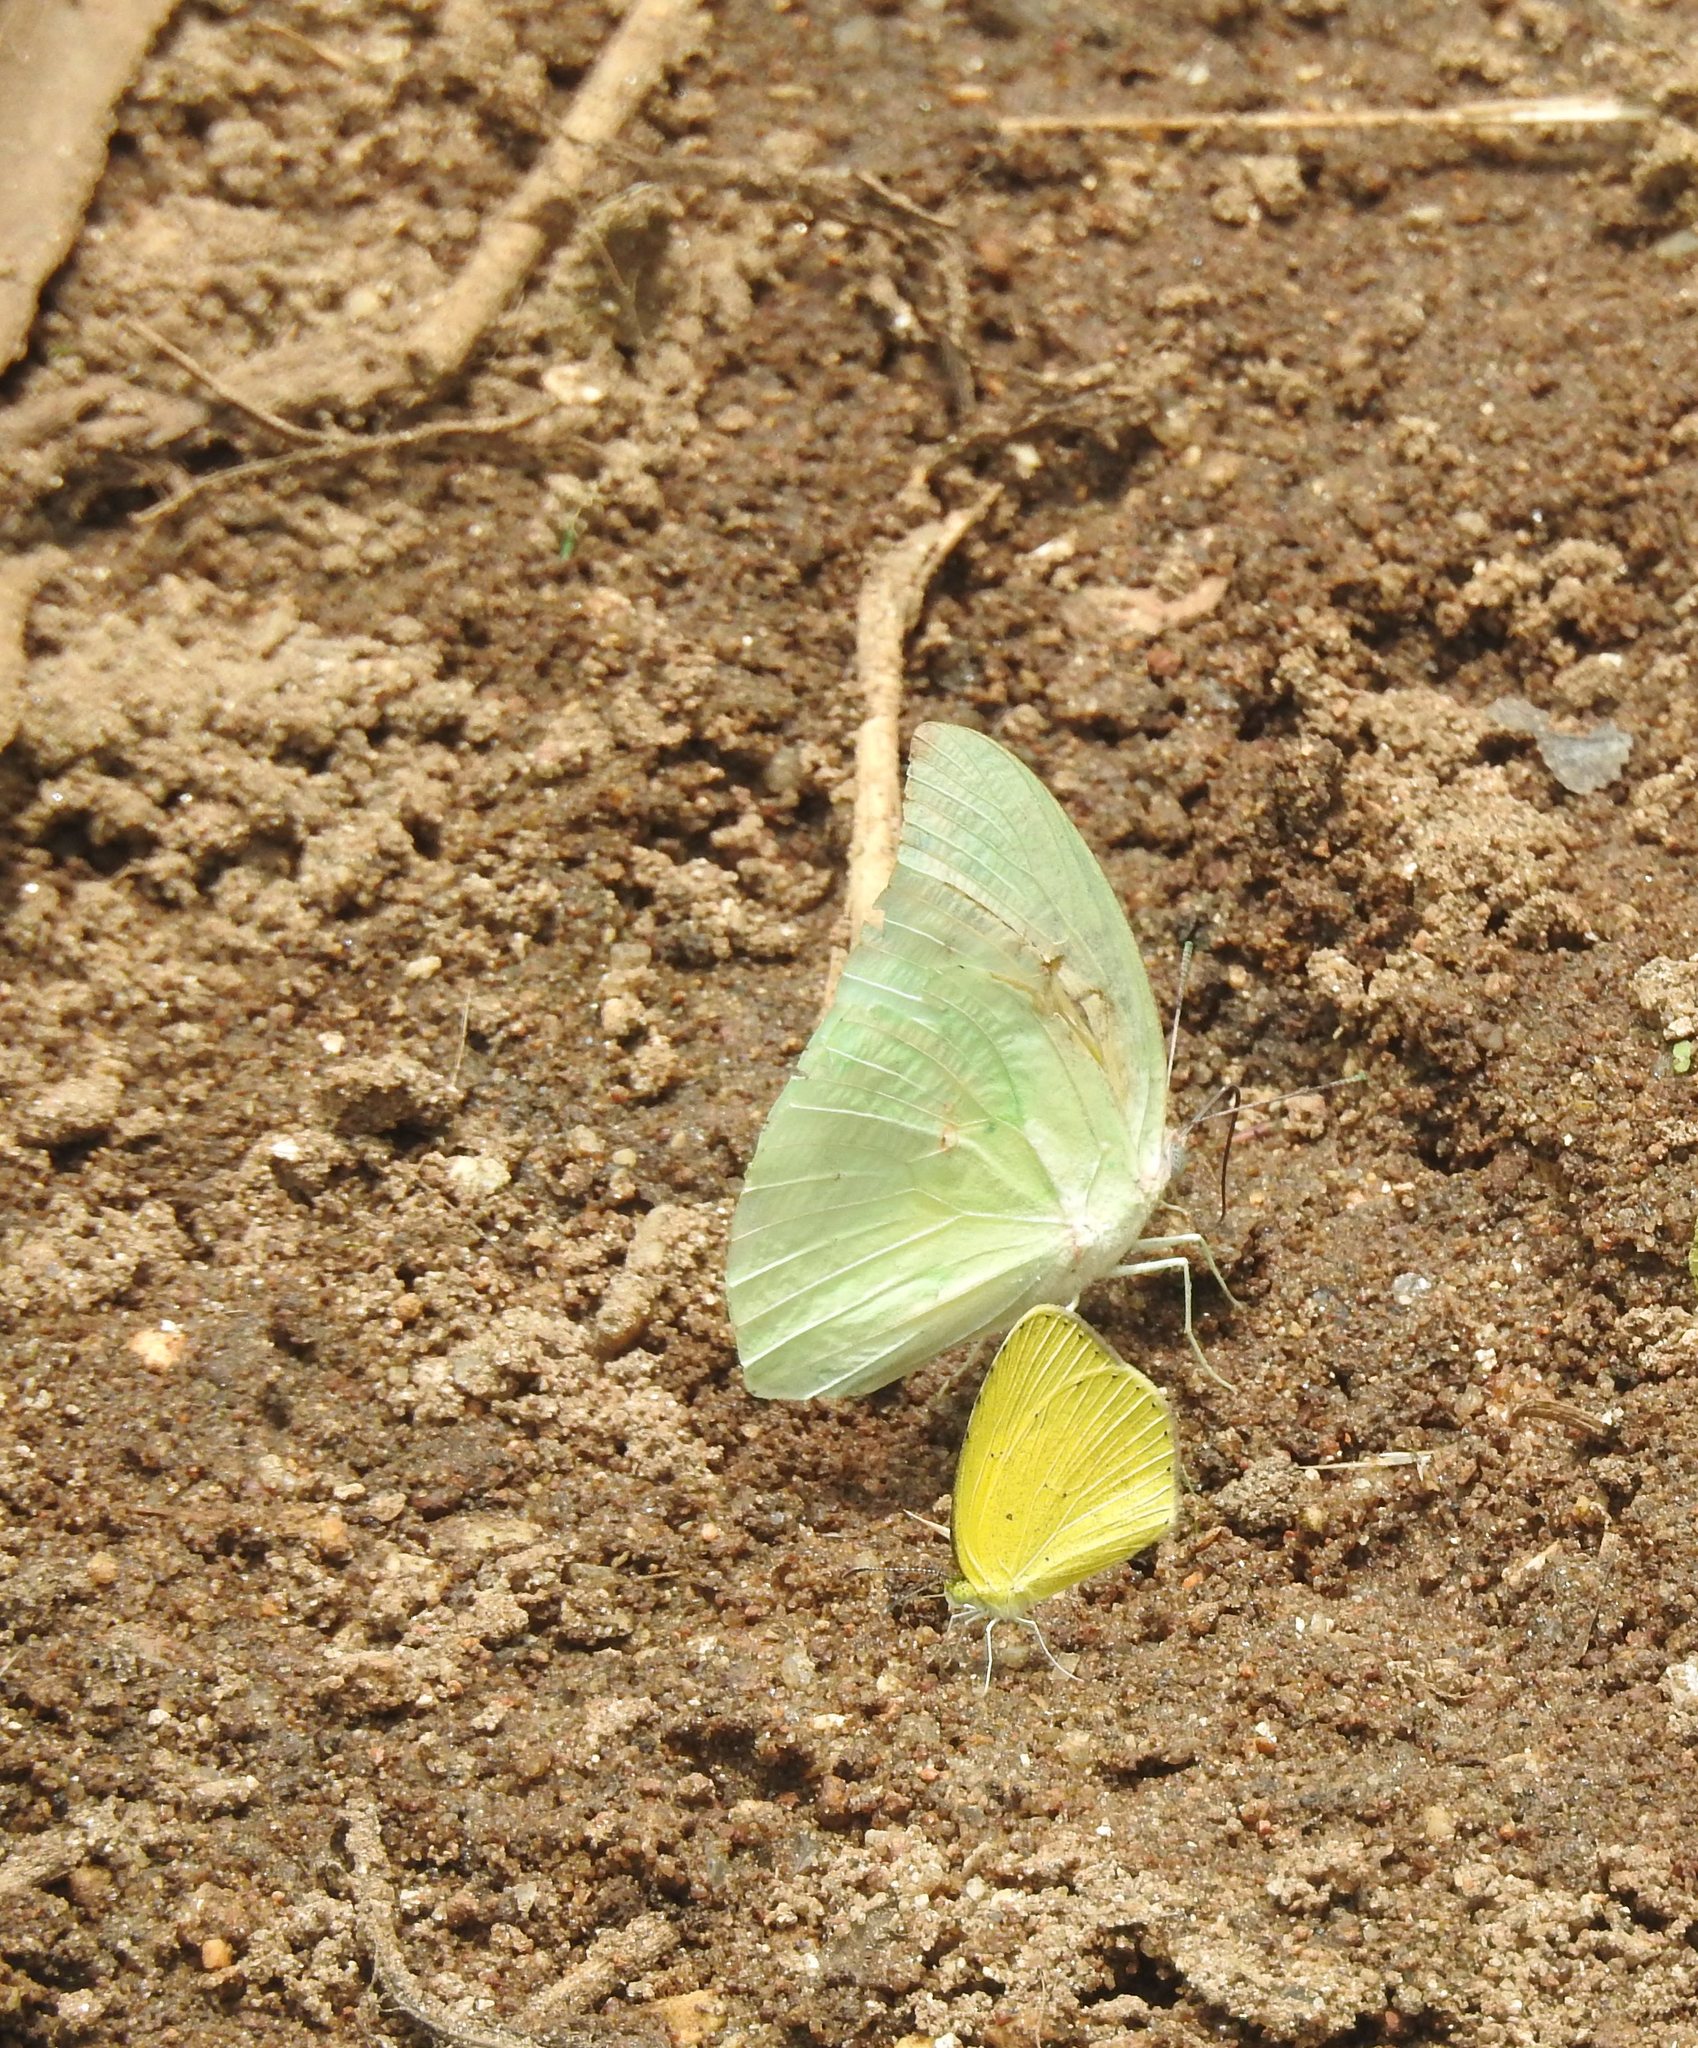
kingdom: Animalia
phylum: Arthropoda
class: Insecta
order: Lepidoptera
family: Pieridae
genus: Catopsilia
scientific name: Catopsilia pyranthe
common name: Mottled emigrant
